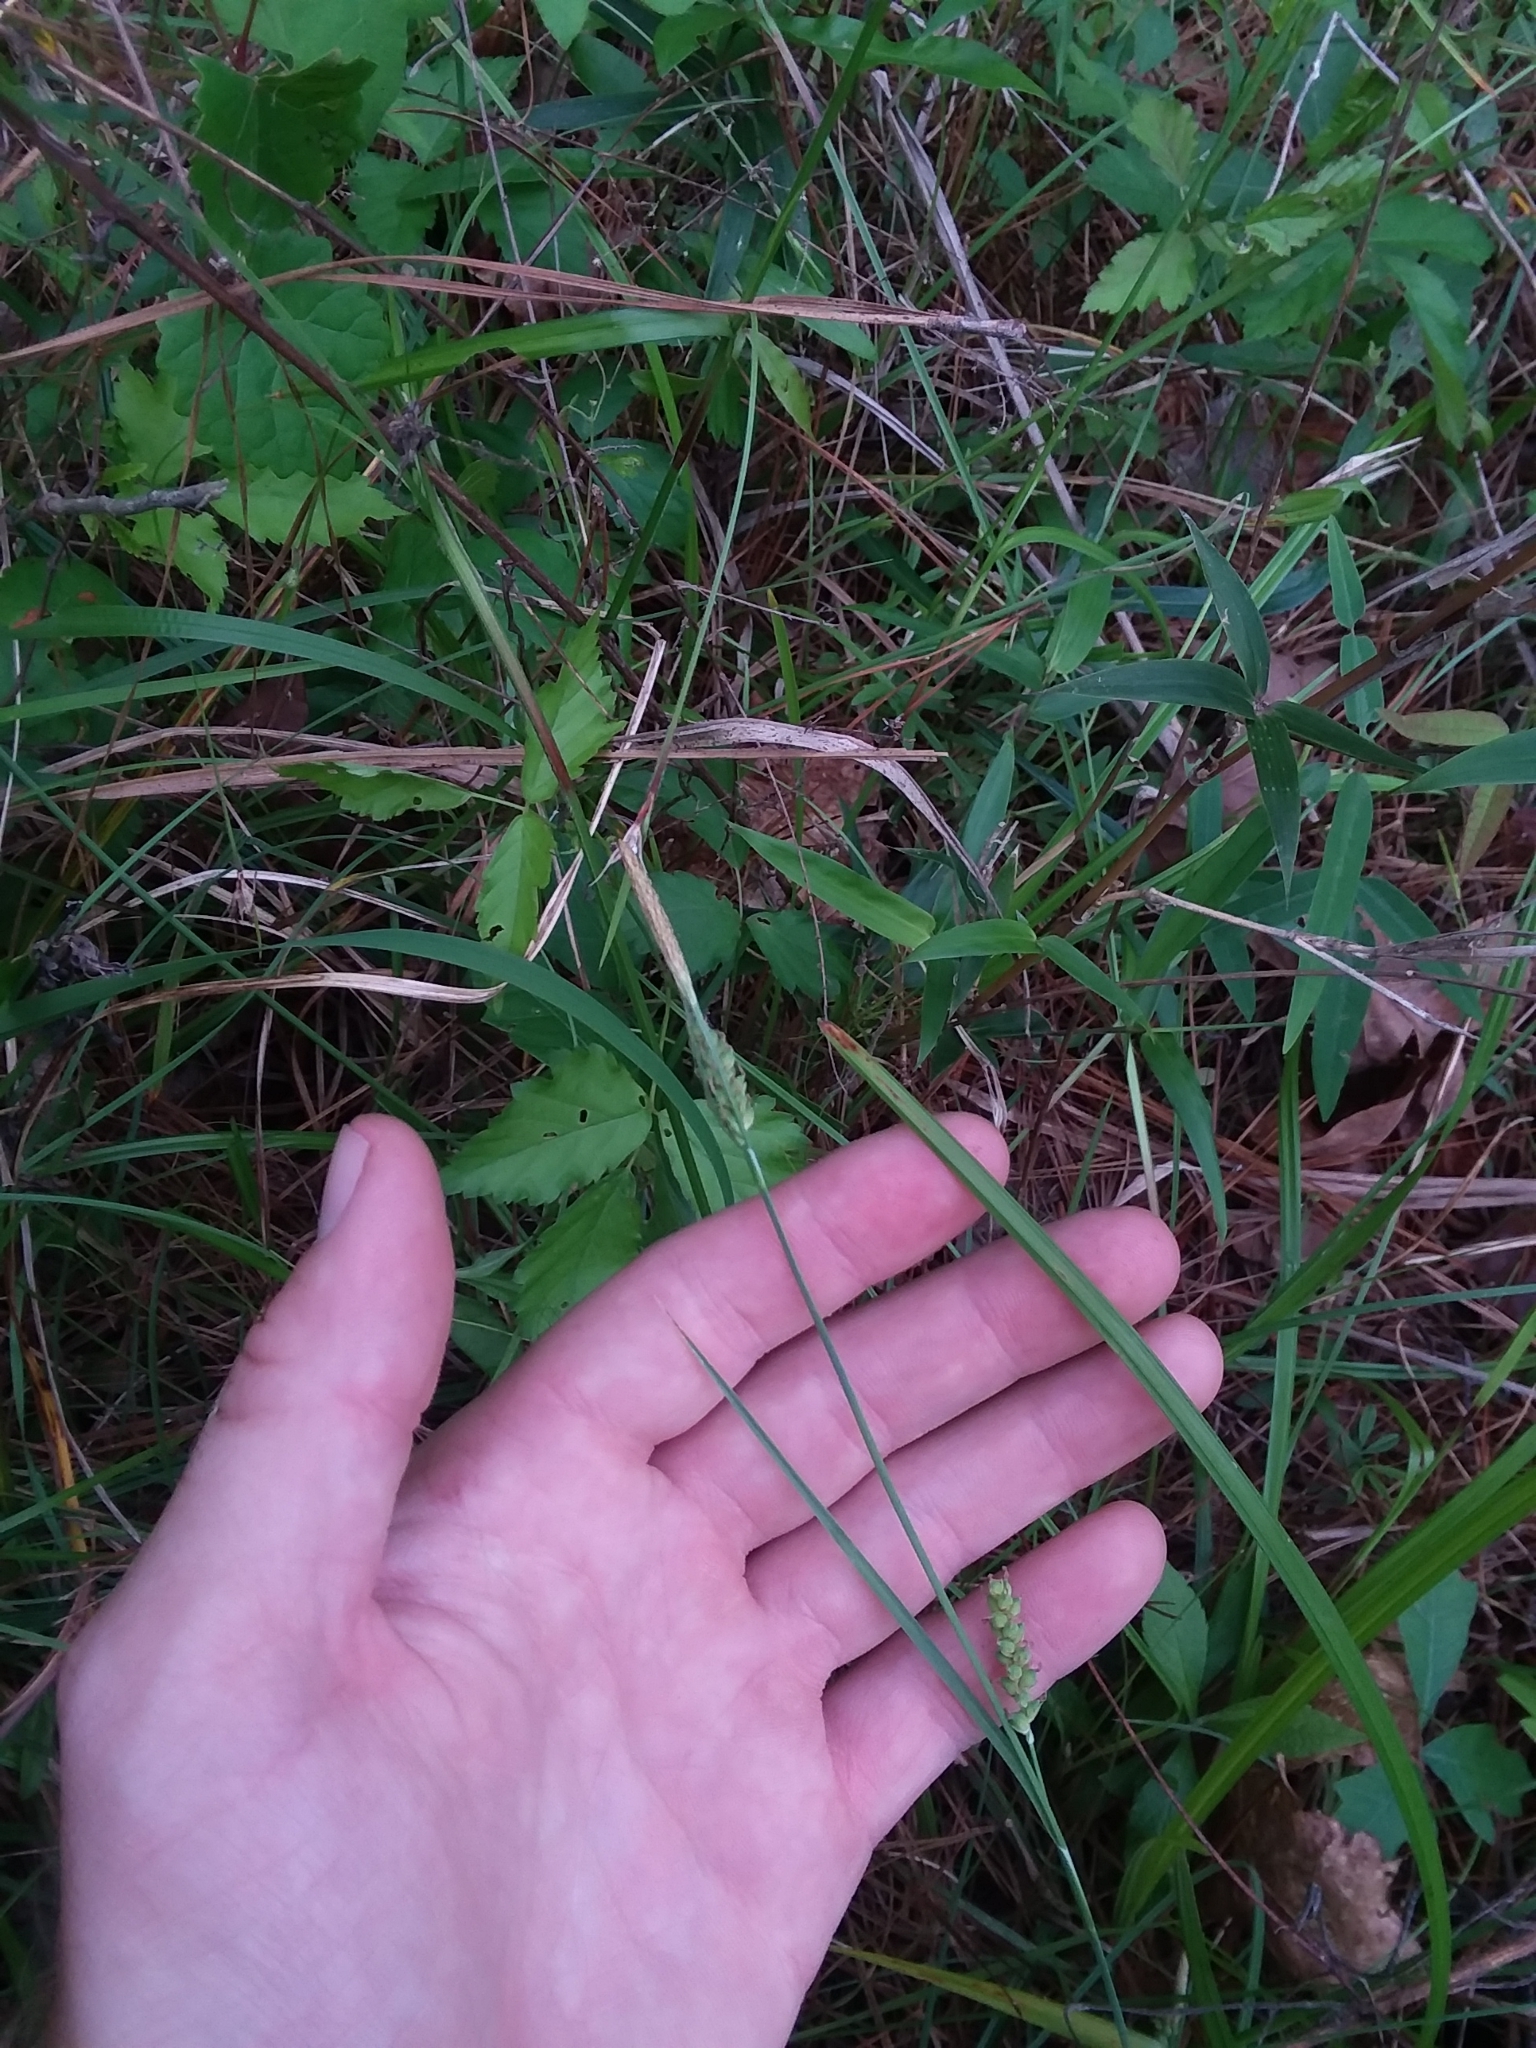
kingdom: Plantae
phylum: Tracheophyta
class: Liliopsida
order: Poales
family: Cyperaceae
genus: Carex
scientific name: Carex meadii
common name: Mead's sedge
